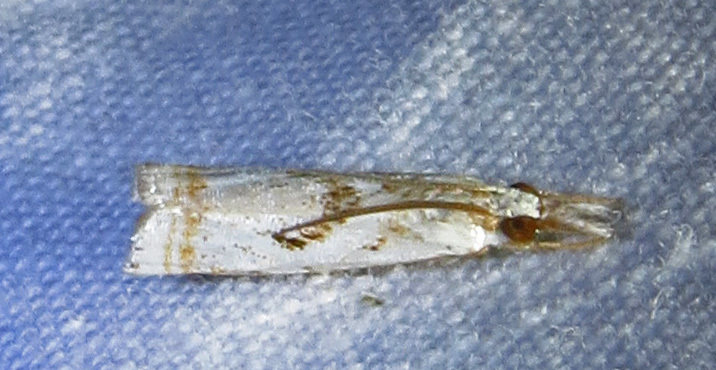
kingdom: Animalia
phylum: Arthropoda
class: Insecta
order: Lepidoptera
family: Crambidae
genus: Microcrambus
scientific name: Microcrambus elegans
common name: Elegant grass-veneer
